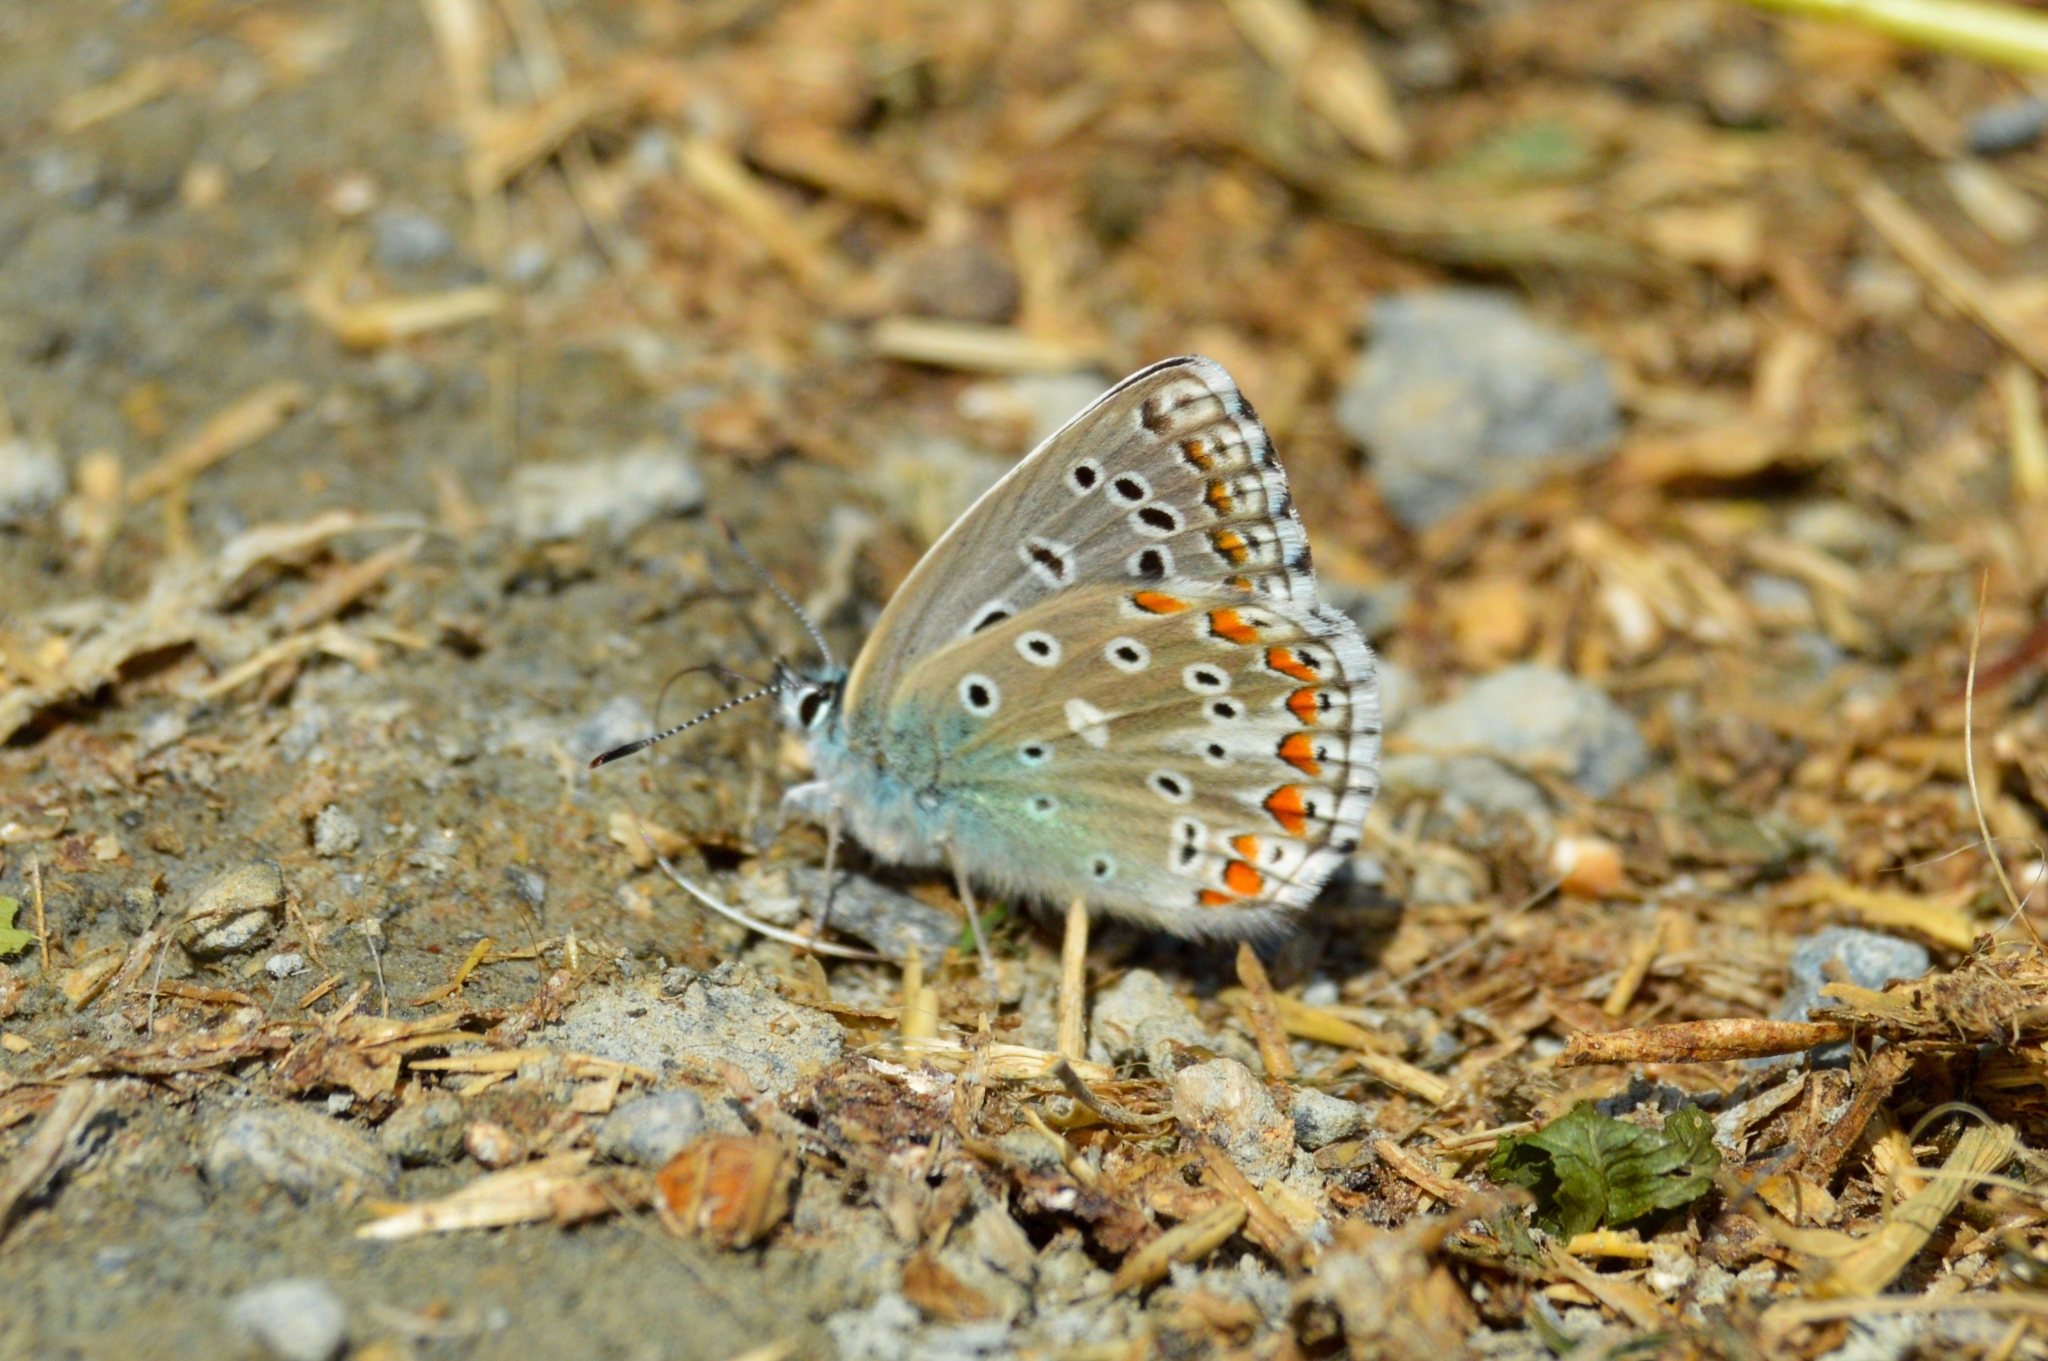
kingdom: Animalia
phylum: Arthropoda
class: Insecta
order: Lepidoptera
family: Lycaenidae
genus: Lysandra
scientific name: Lysandra bellargus
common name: Adonis blue
